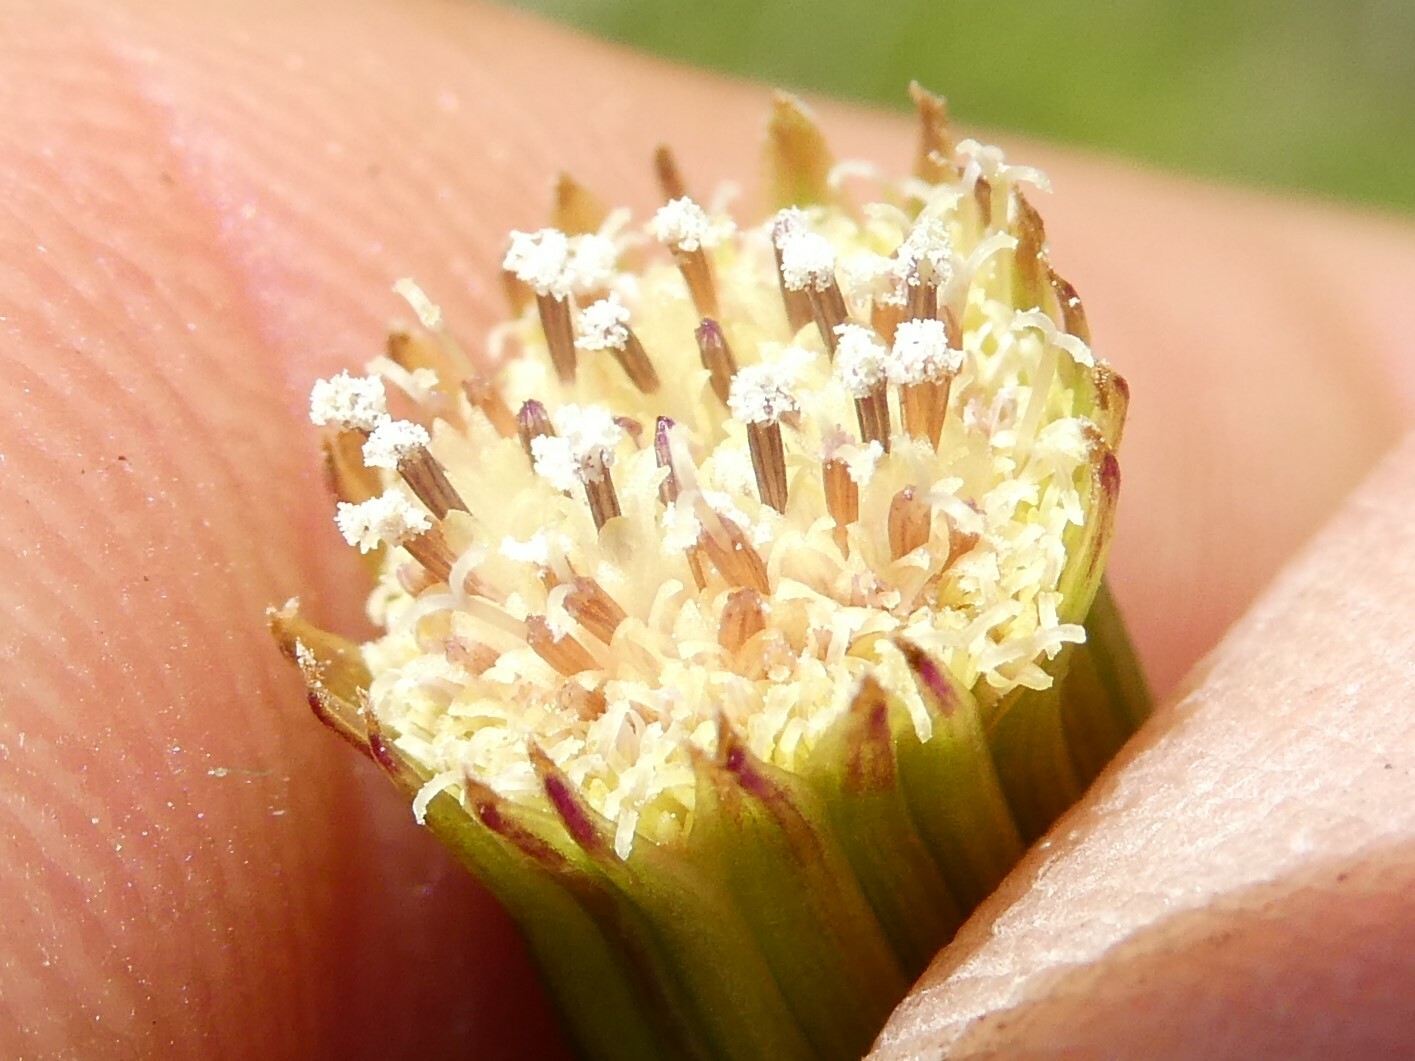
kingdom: Plantae
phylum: Tracheophyta
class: Magnoliopsida
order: Asterales
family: Asteraceae
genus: Erechtites
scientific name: Erechtites hieraciifolius
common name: American burnweed
